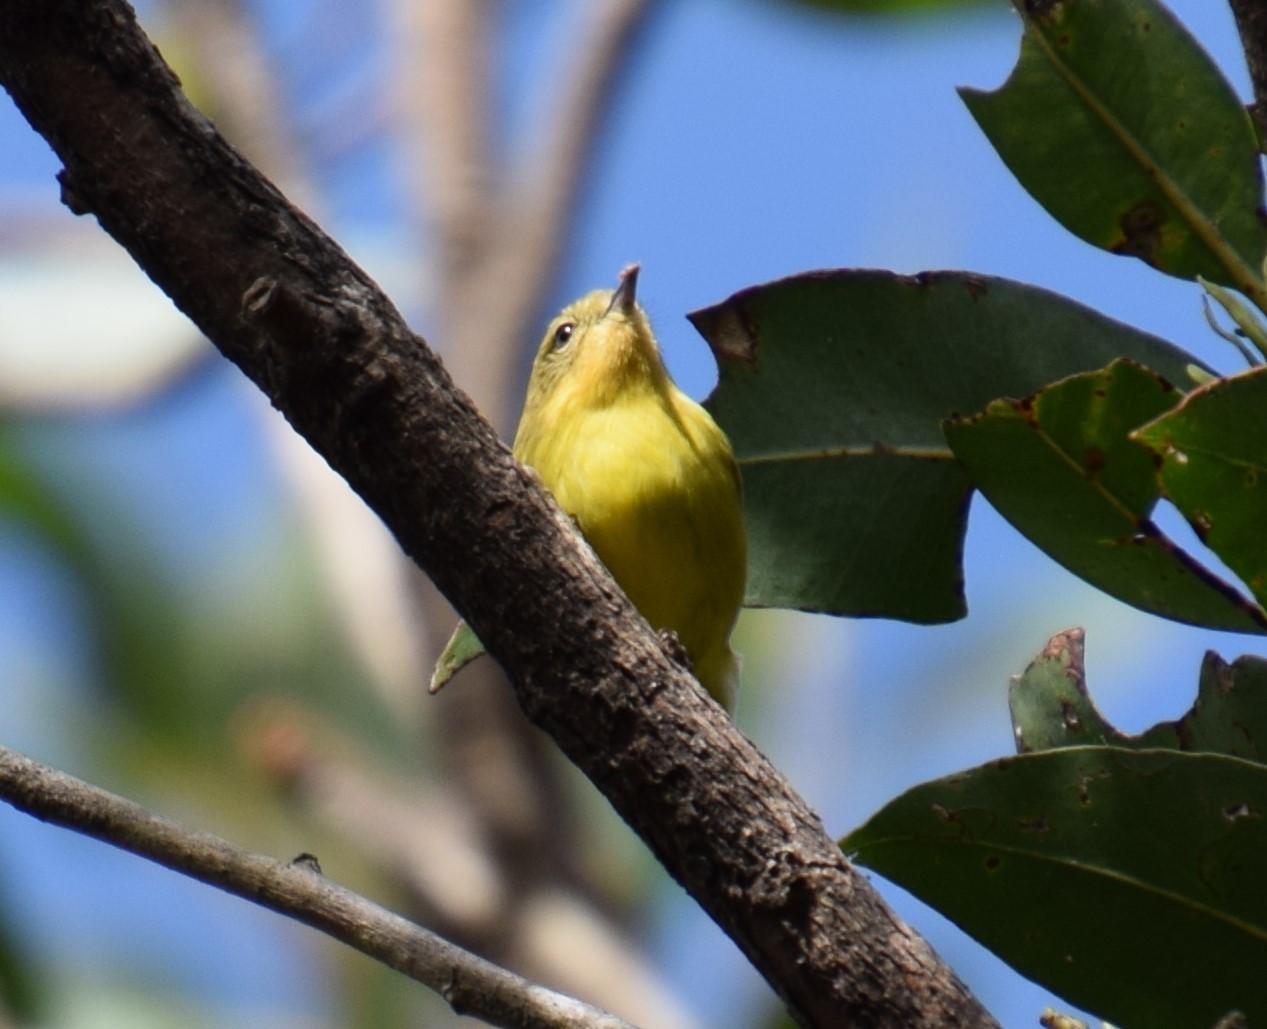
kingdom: Animalia
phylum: Chordata
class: Aves
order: Passeriformes
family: Acanthizidae
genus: Acanthiza
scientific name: Acanthiza nana
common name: Yellow thornbill
